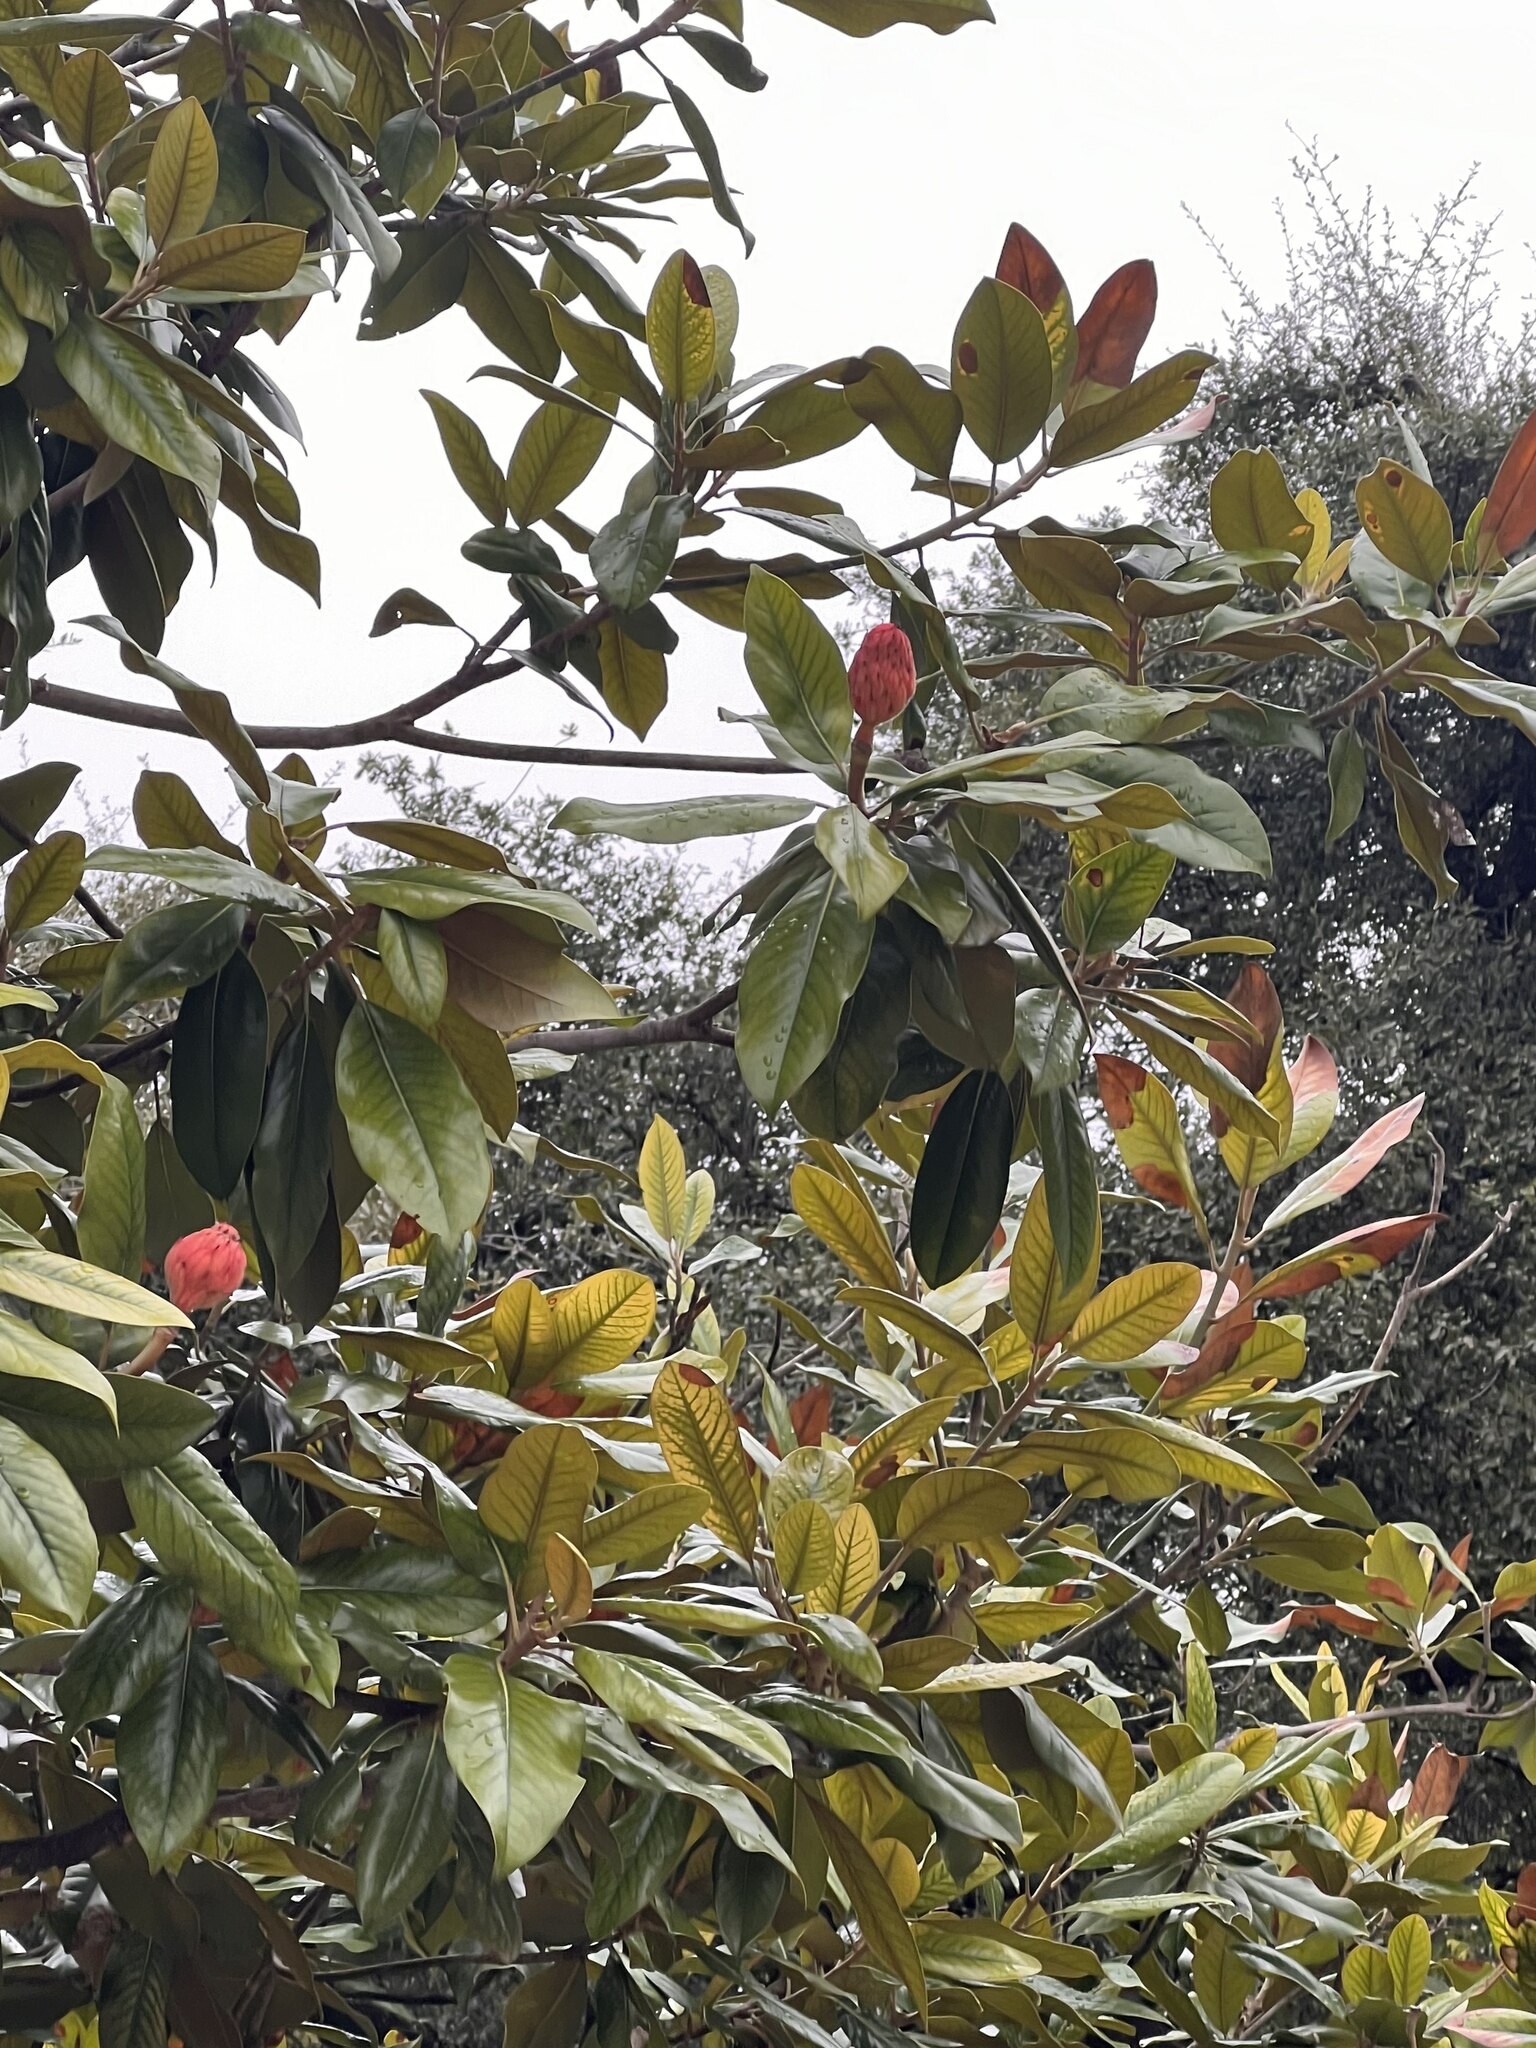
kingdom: Plantae
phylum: Tracheophyta
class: Magnoliopsida
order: Magnoliales
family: Magnoliaceae
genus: Magnolia
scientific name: Magnolia grandiflora
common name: Southern magnolia
